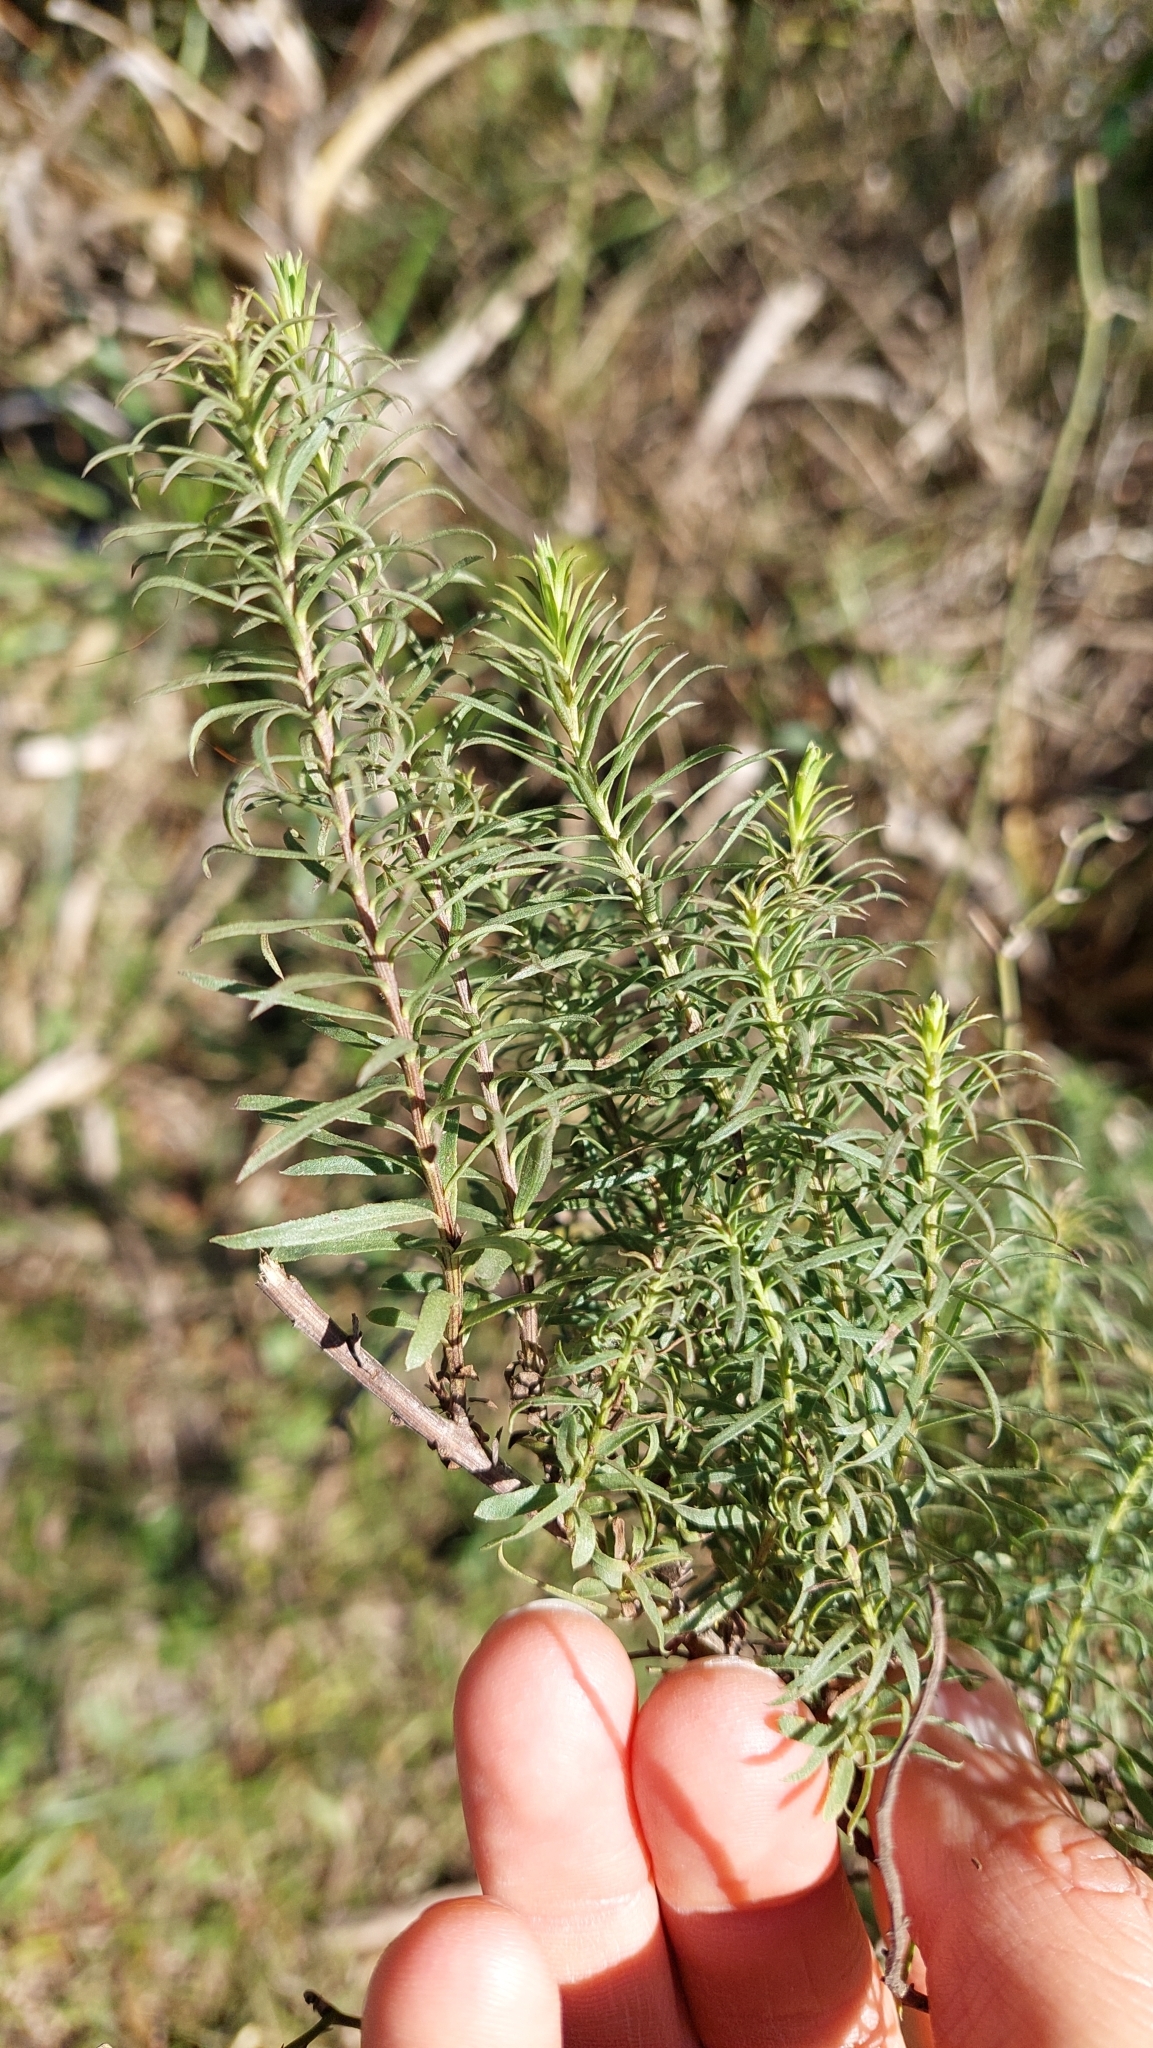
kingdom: Plantae
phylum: Tracheophyta
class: Magnoliopsida
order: Asterales
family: Asteraceae
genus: Baccharis
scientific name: Baccharis coridifolia
